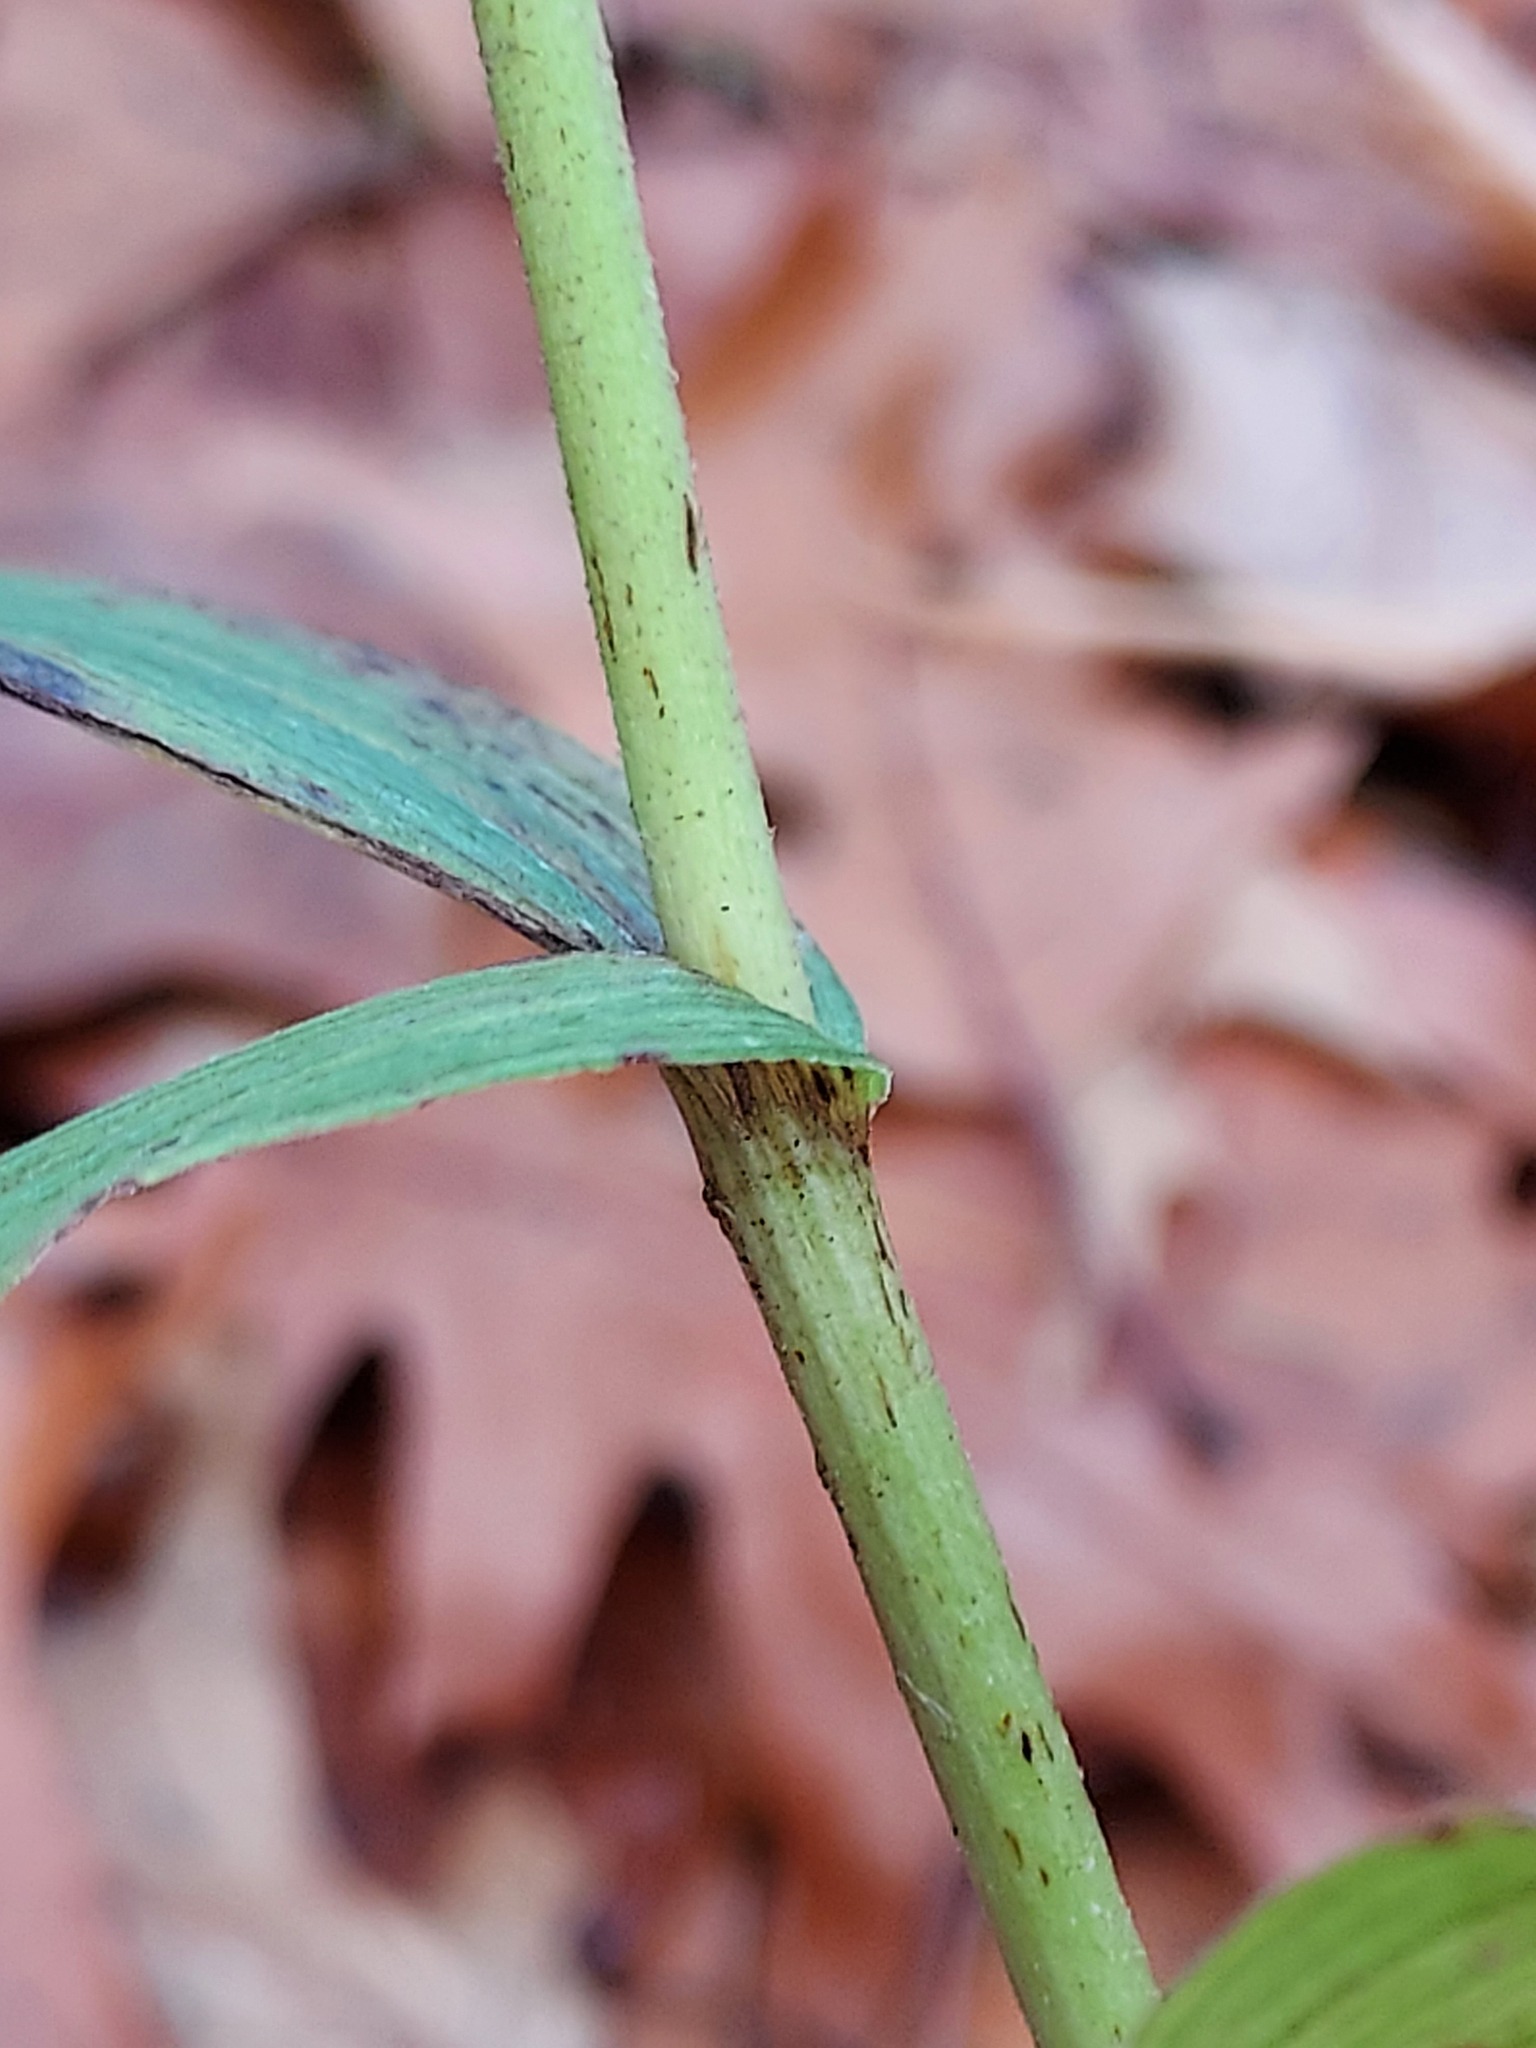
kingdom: Plantae
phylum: Tracheophyta
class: Liliopsida
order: Asparagales
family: Orchidaceae
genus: Epipactis
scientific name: Epipactis helleborine
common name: Broad-leaved helleborine
